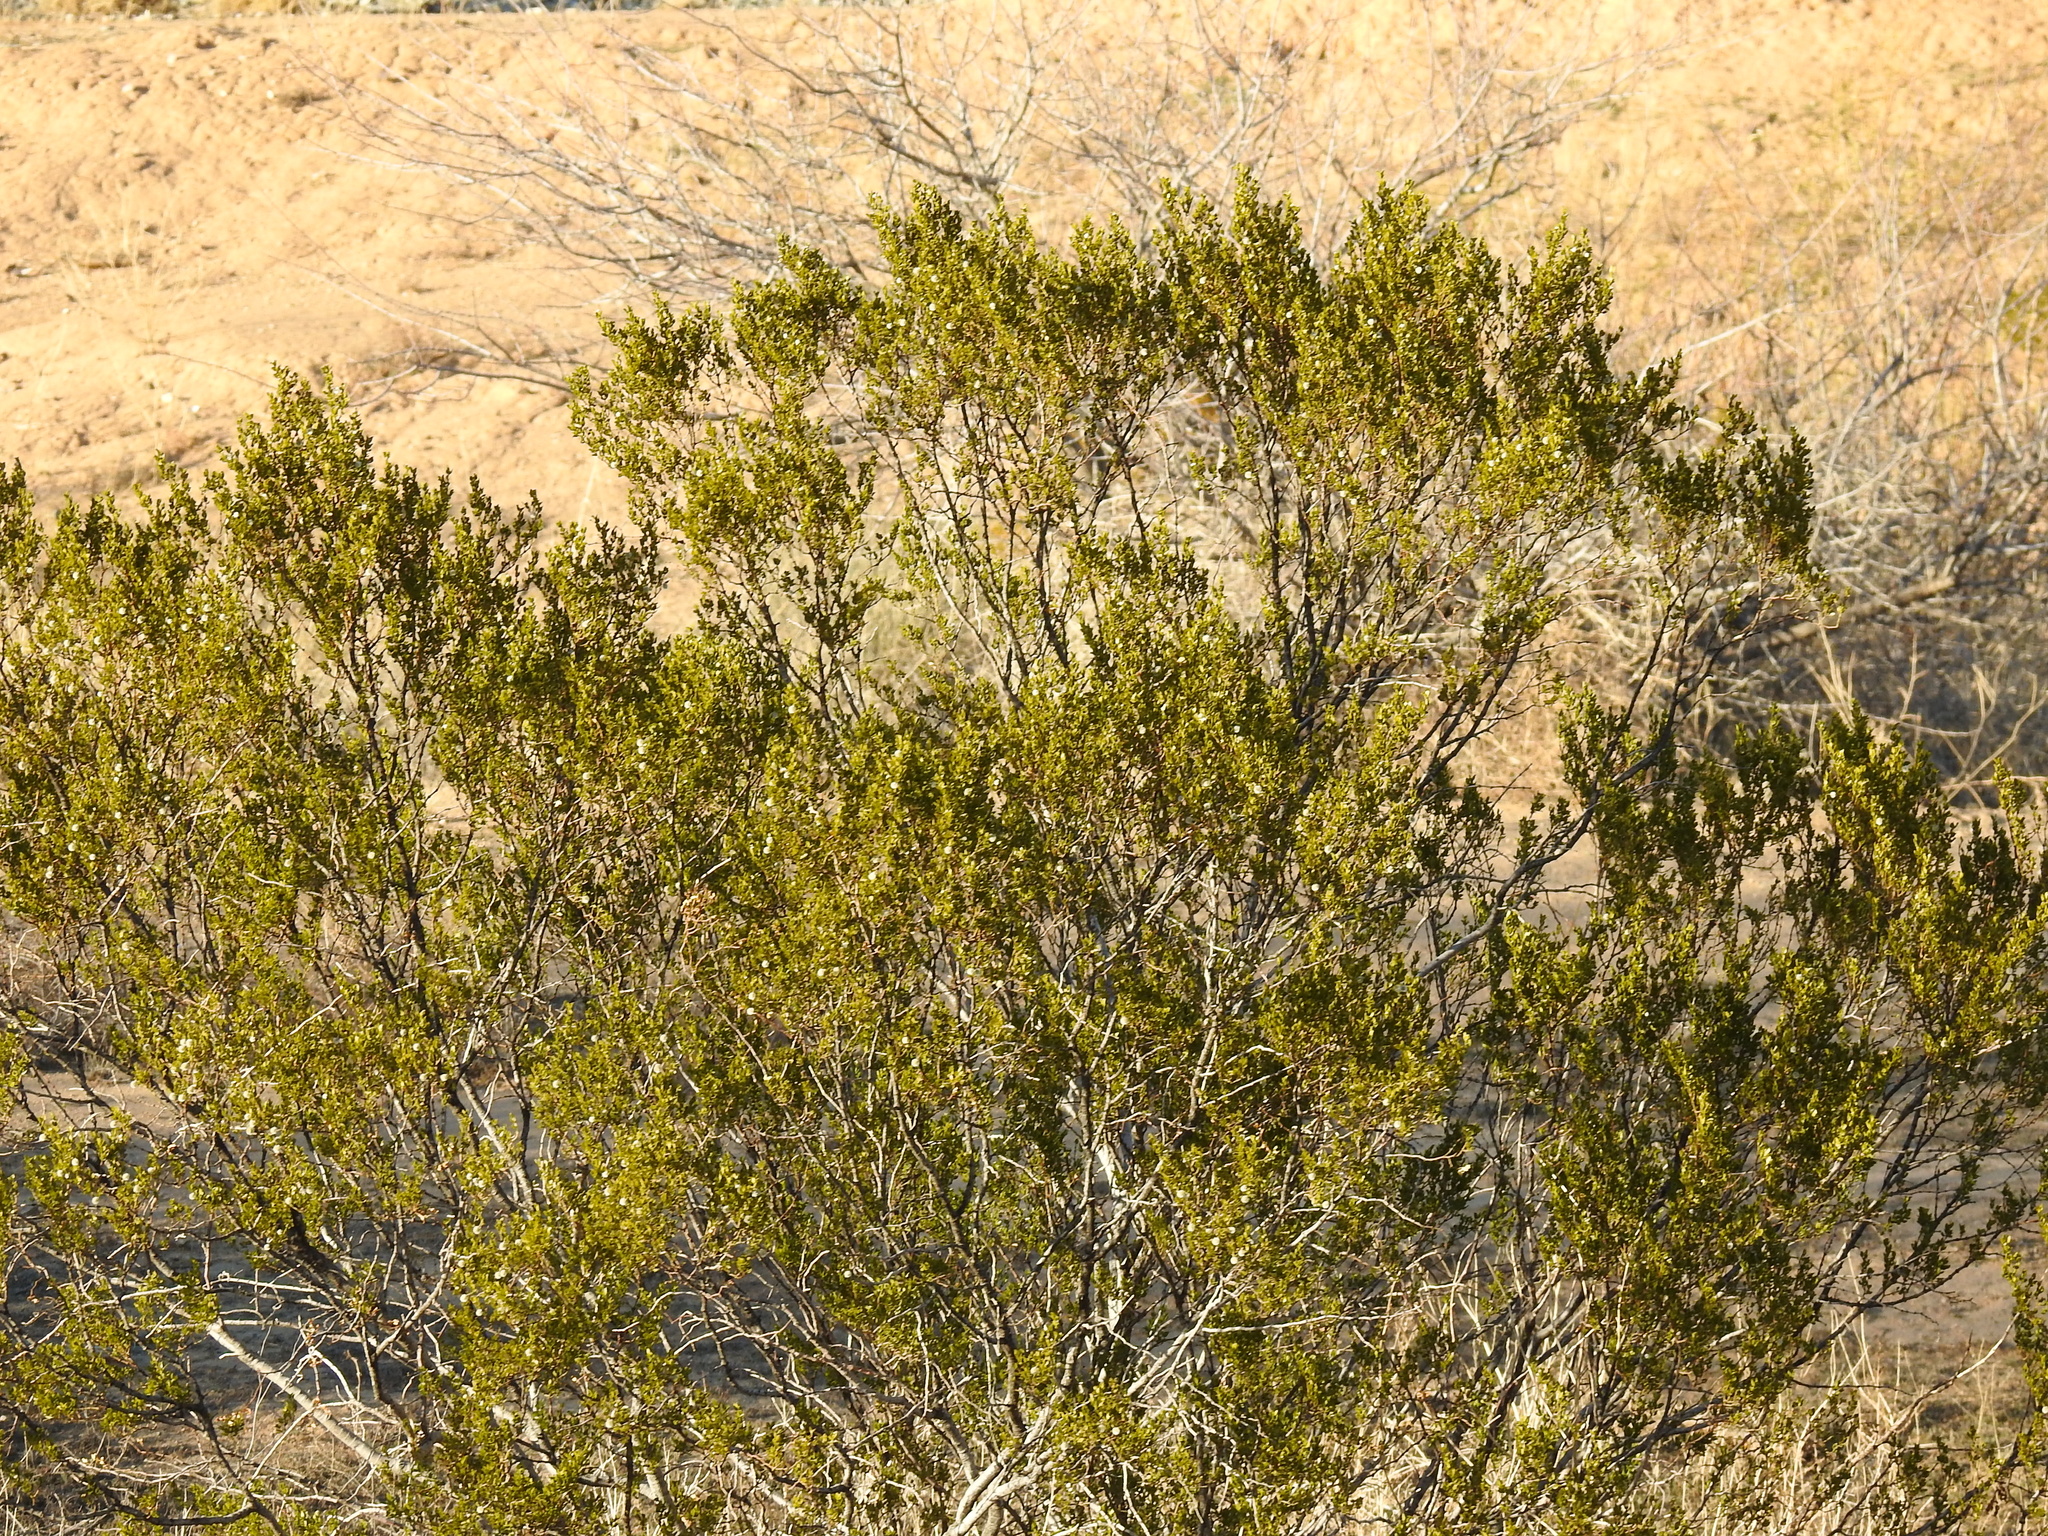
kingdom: Plantae
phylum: Tracheophyta
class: Magnoliopsida
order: Zygophyllales
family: Zygophyllaceae
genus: Larrea
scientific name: Larrea tridentata
